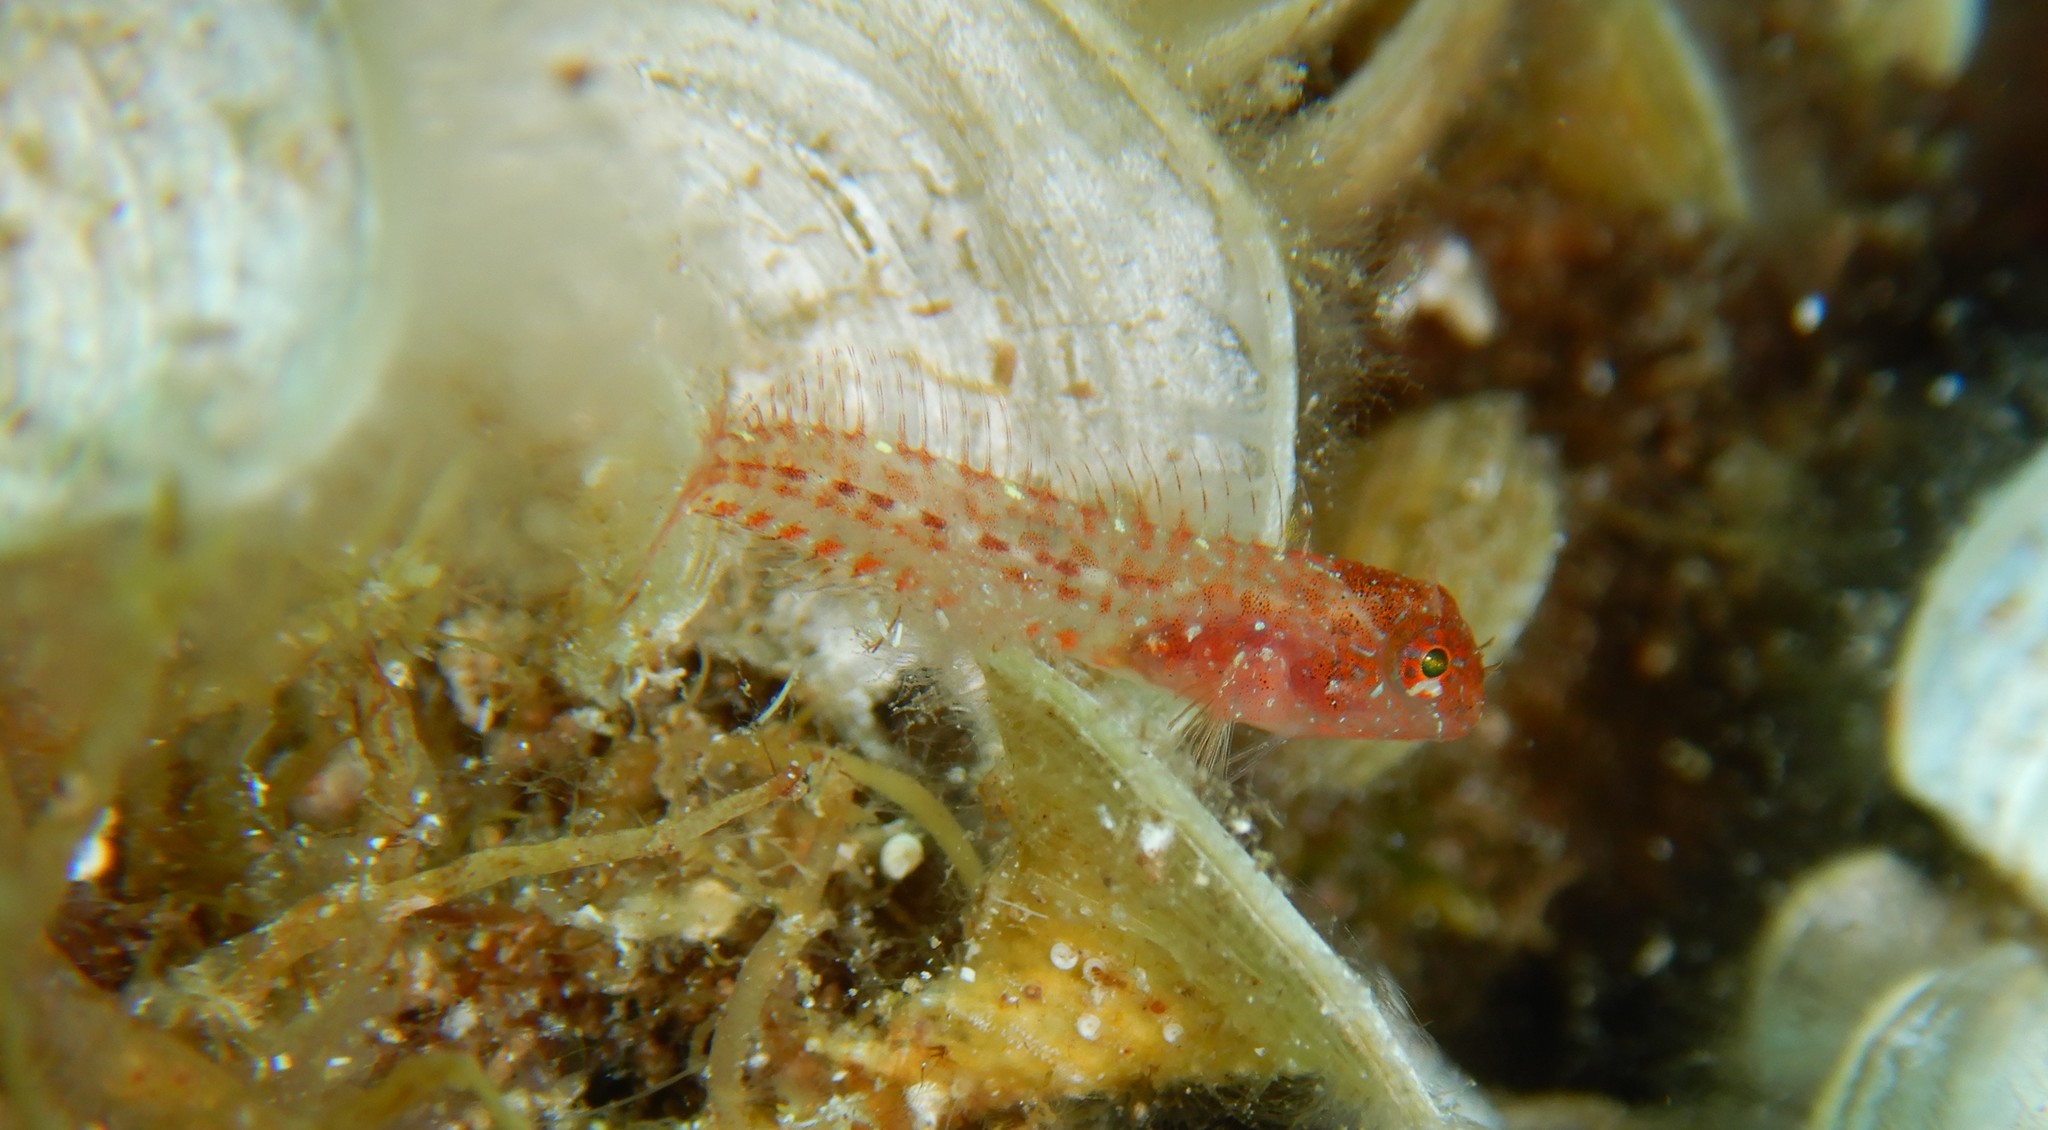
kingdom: Animalia
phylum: Chordata
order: Perciformes
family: Blenniidae
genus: Parablennius
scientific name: Parablennius zvonimiri
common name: Red blenny
